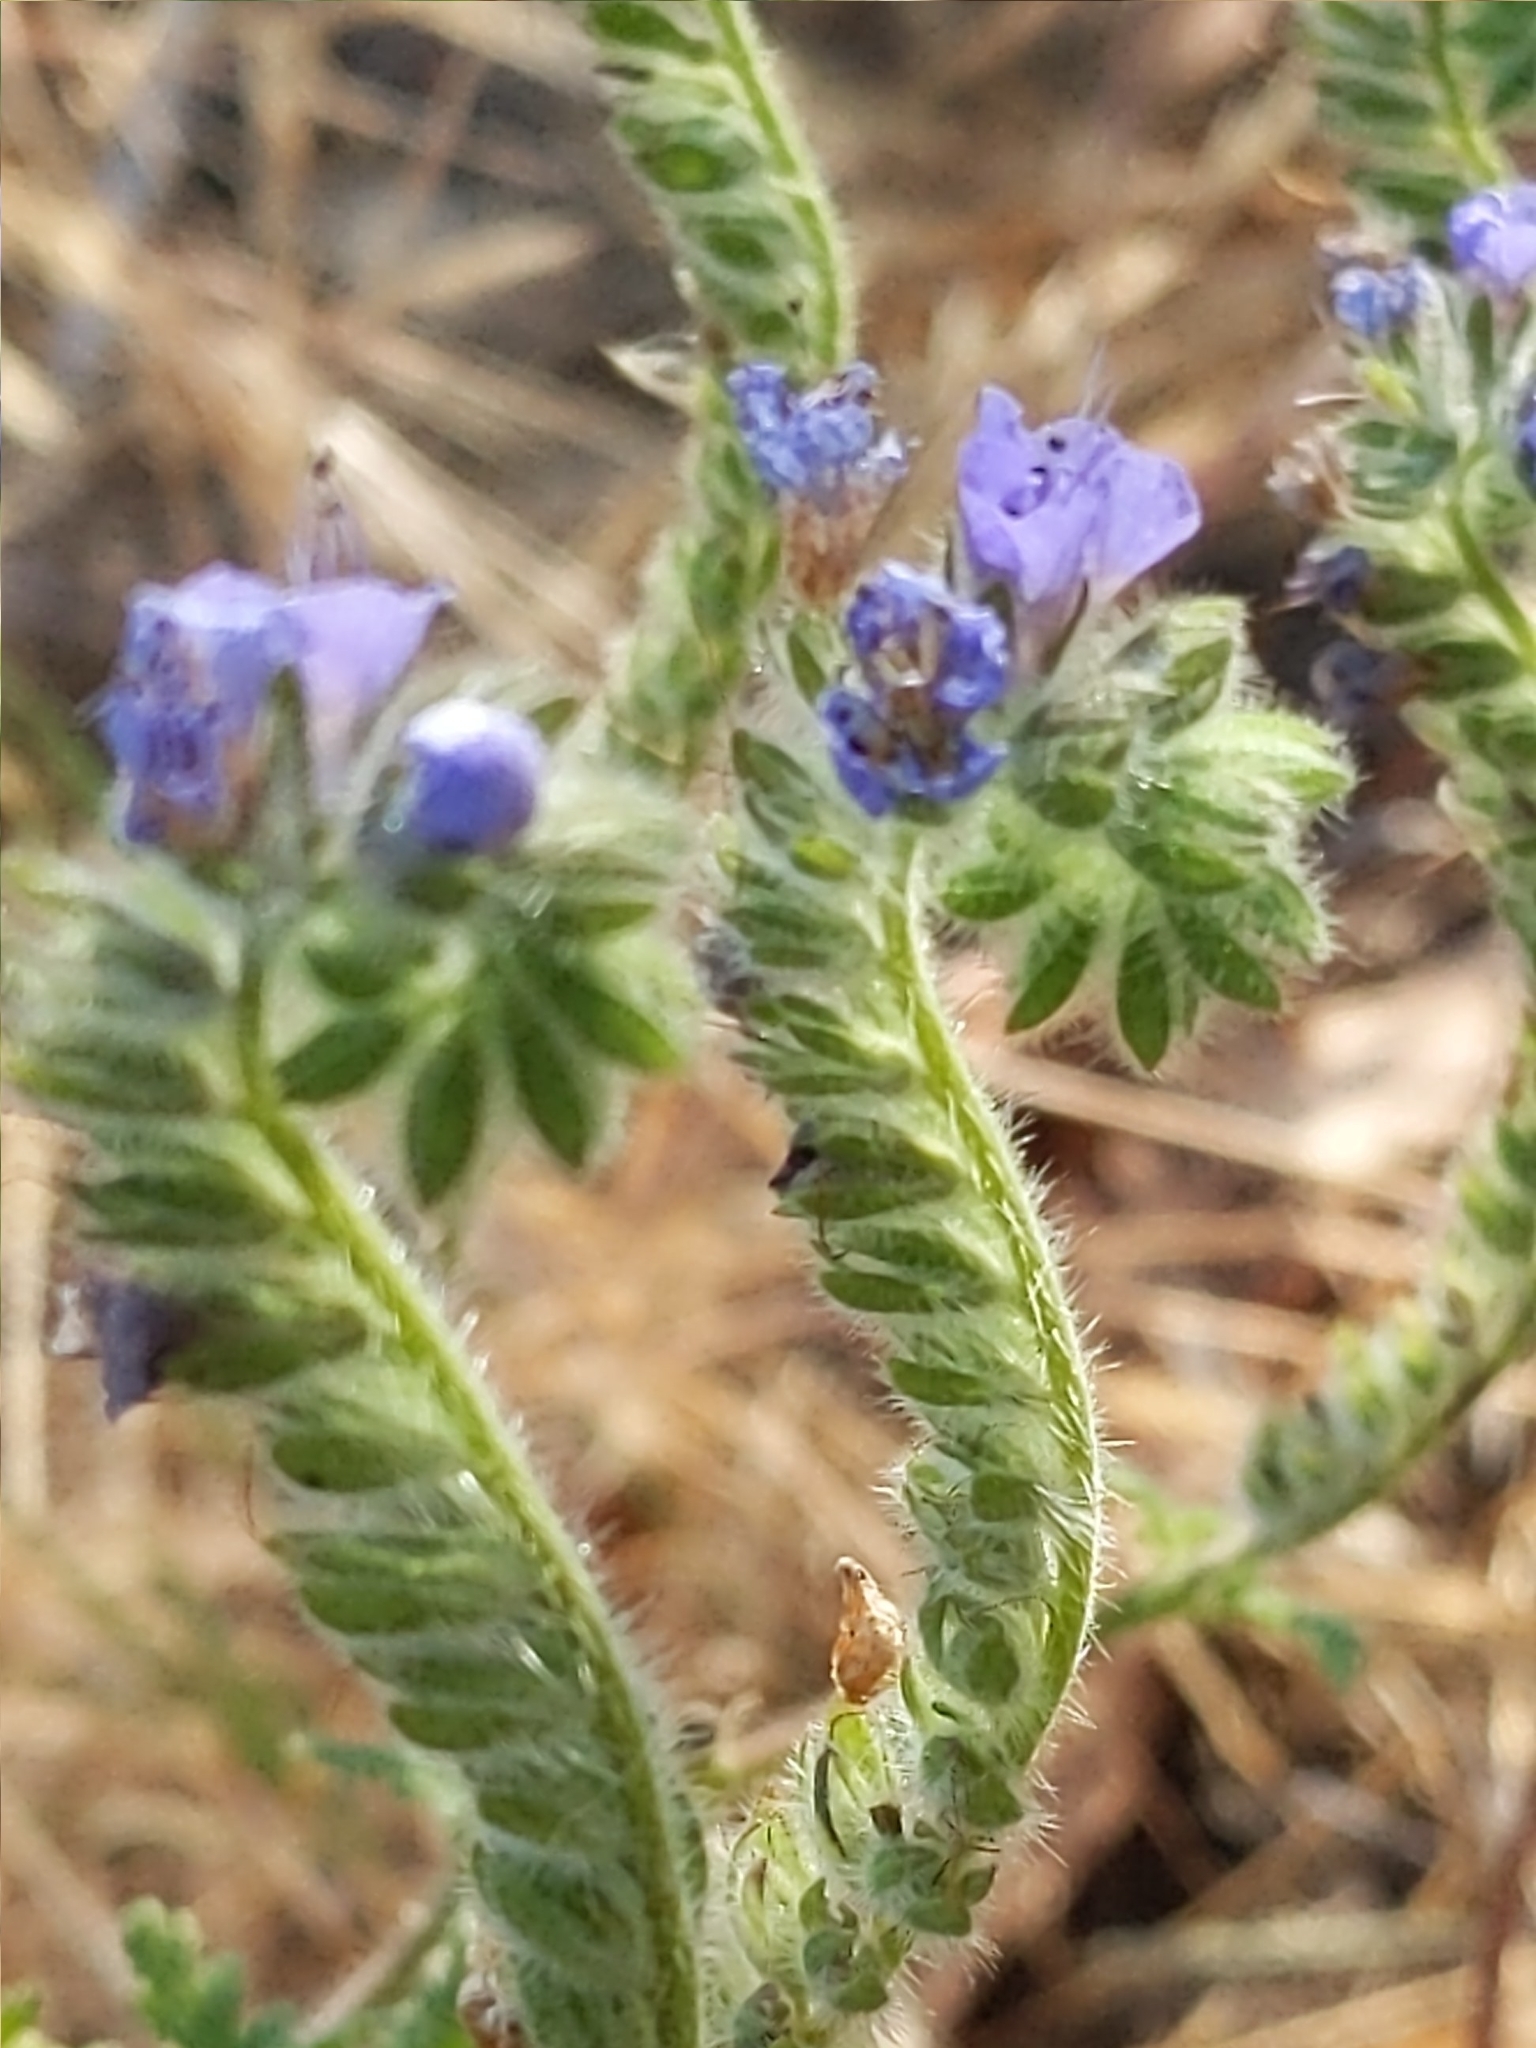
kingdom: Plantae
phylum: Tracheophyta
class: Magnoliopsida
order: Boraginales
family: Hydrophyllaceae
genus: Phacelia
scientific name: Phacelia distans
